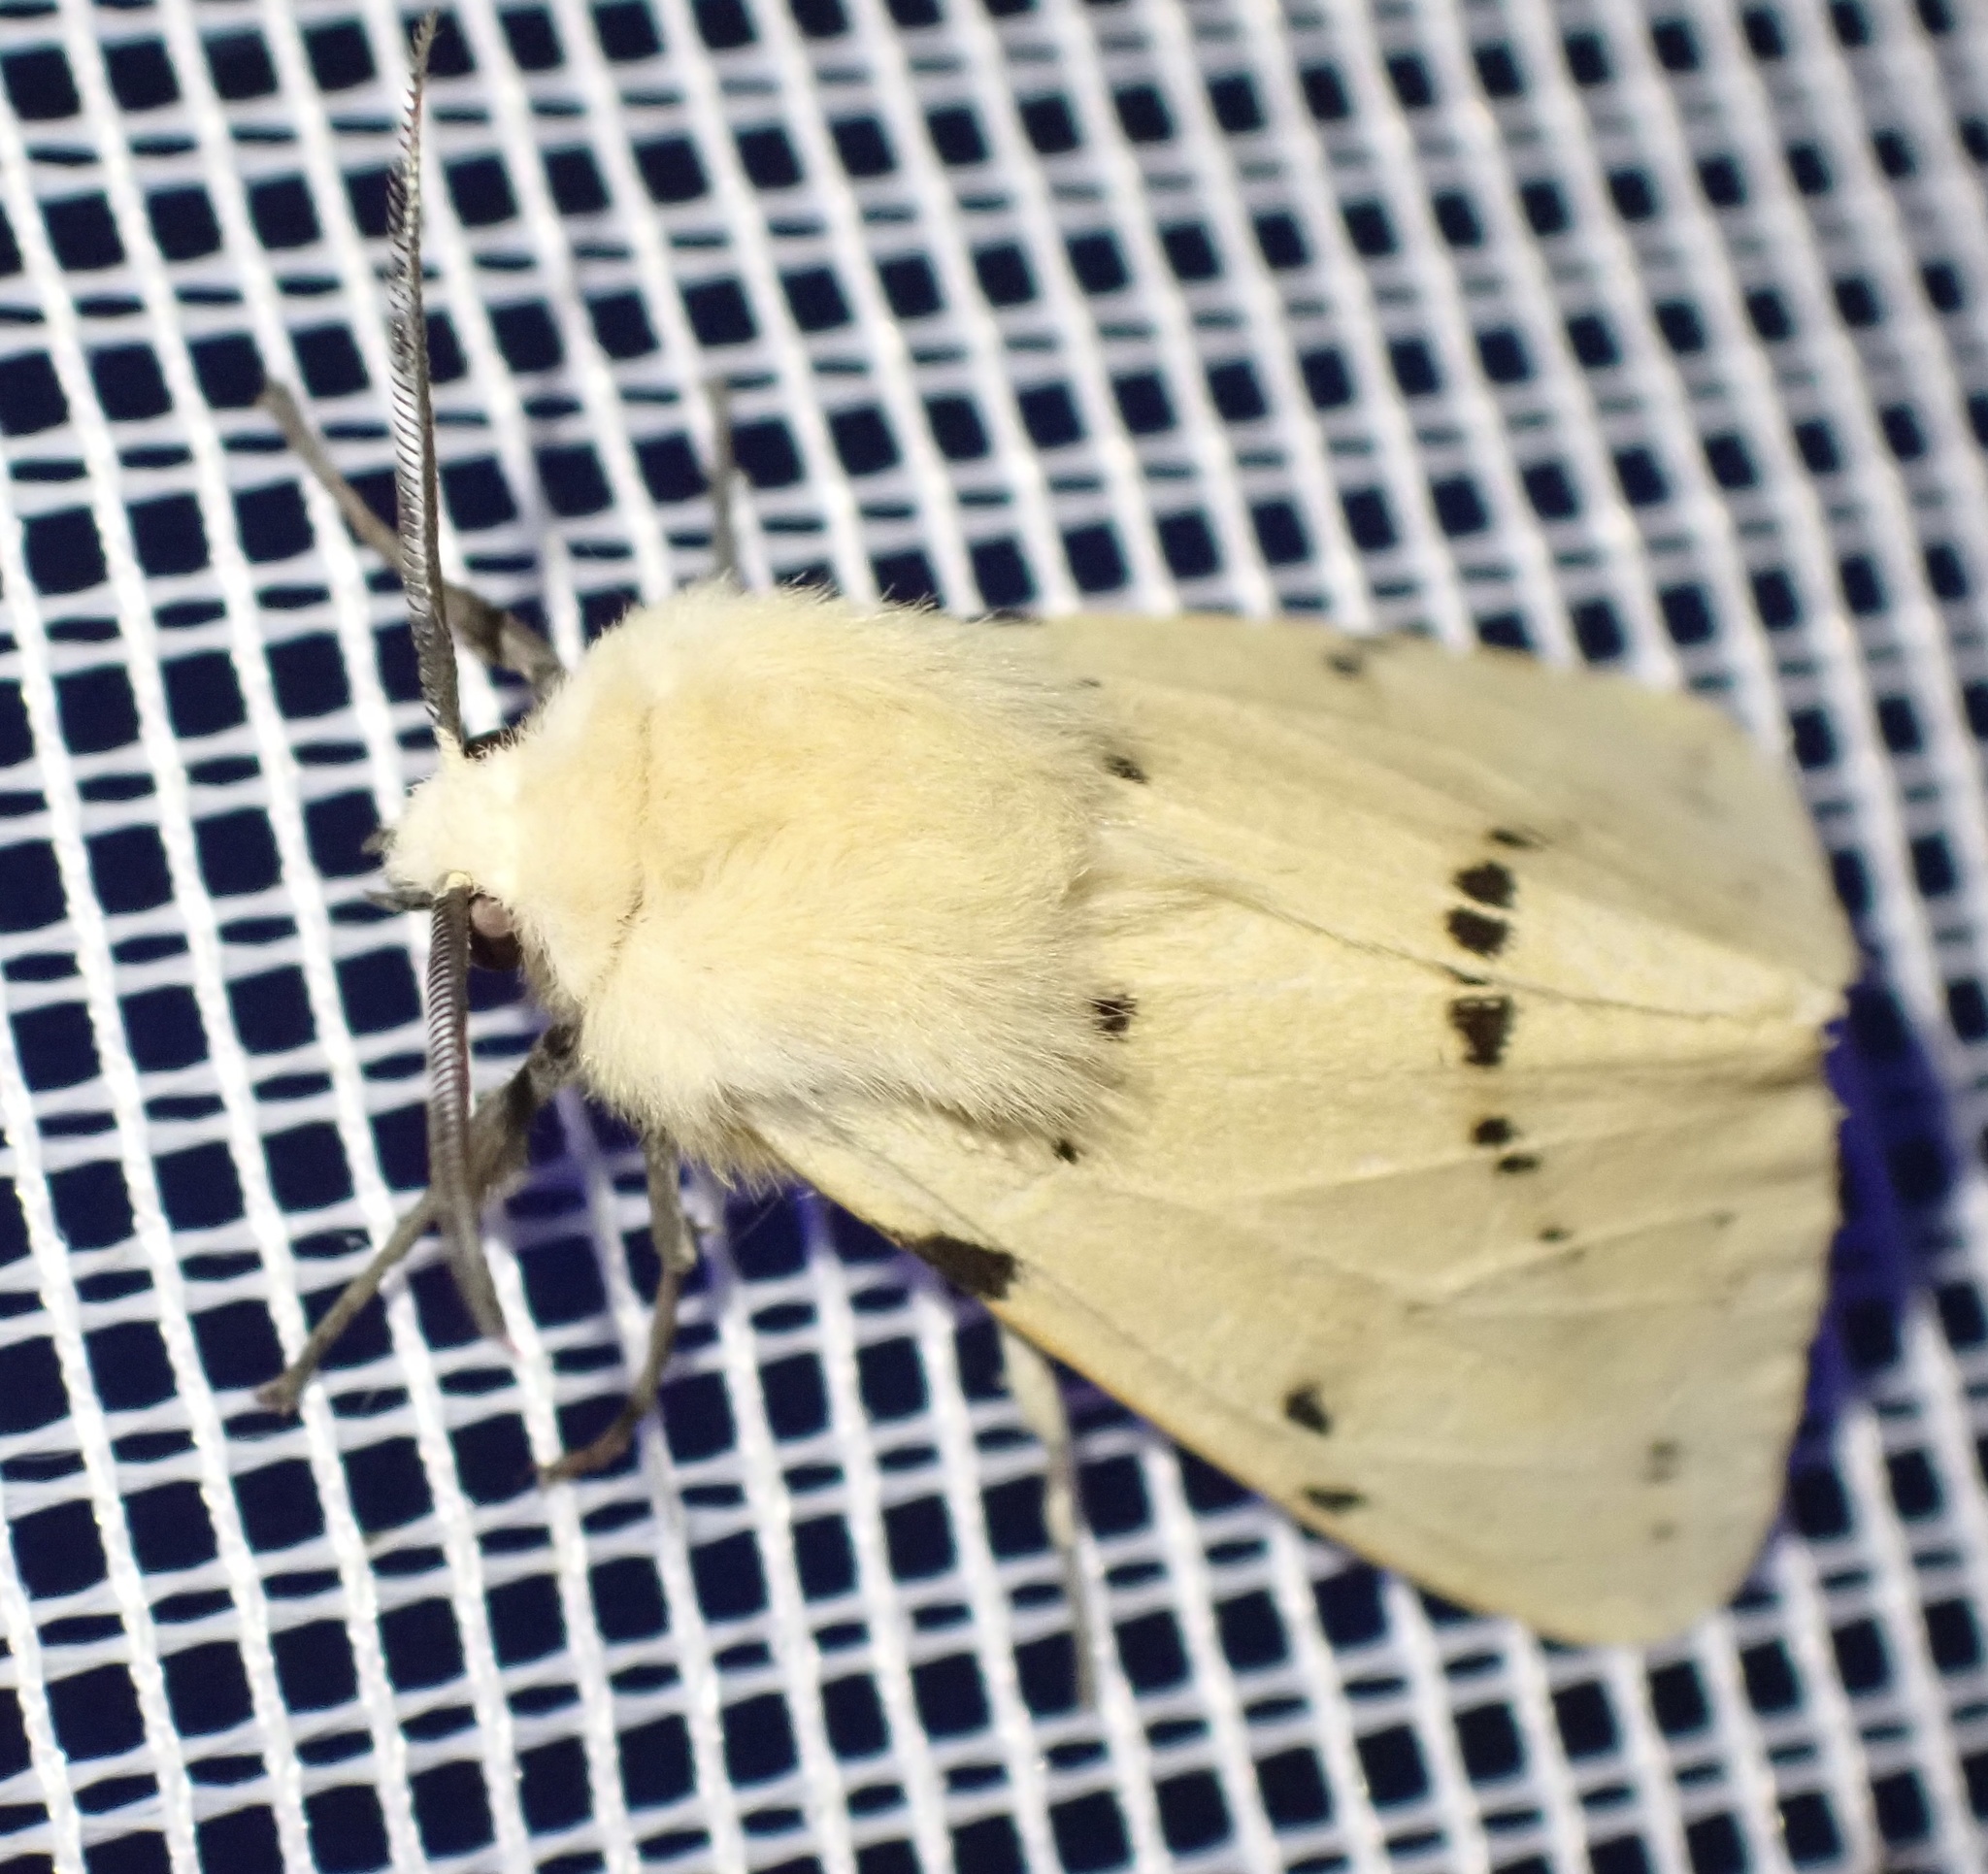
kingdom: Animalia
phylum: Arthropoda
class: Insecta
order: Lepidoptera
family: Erebidae
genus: Spilarctia
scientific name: Spilarctia lutea
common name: Buff ermine
